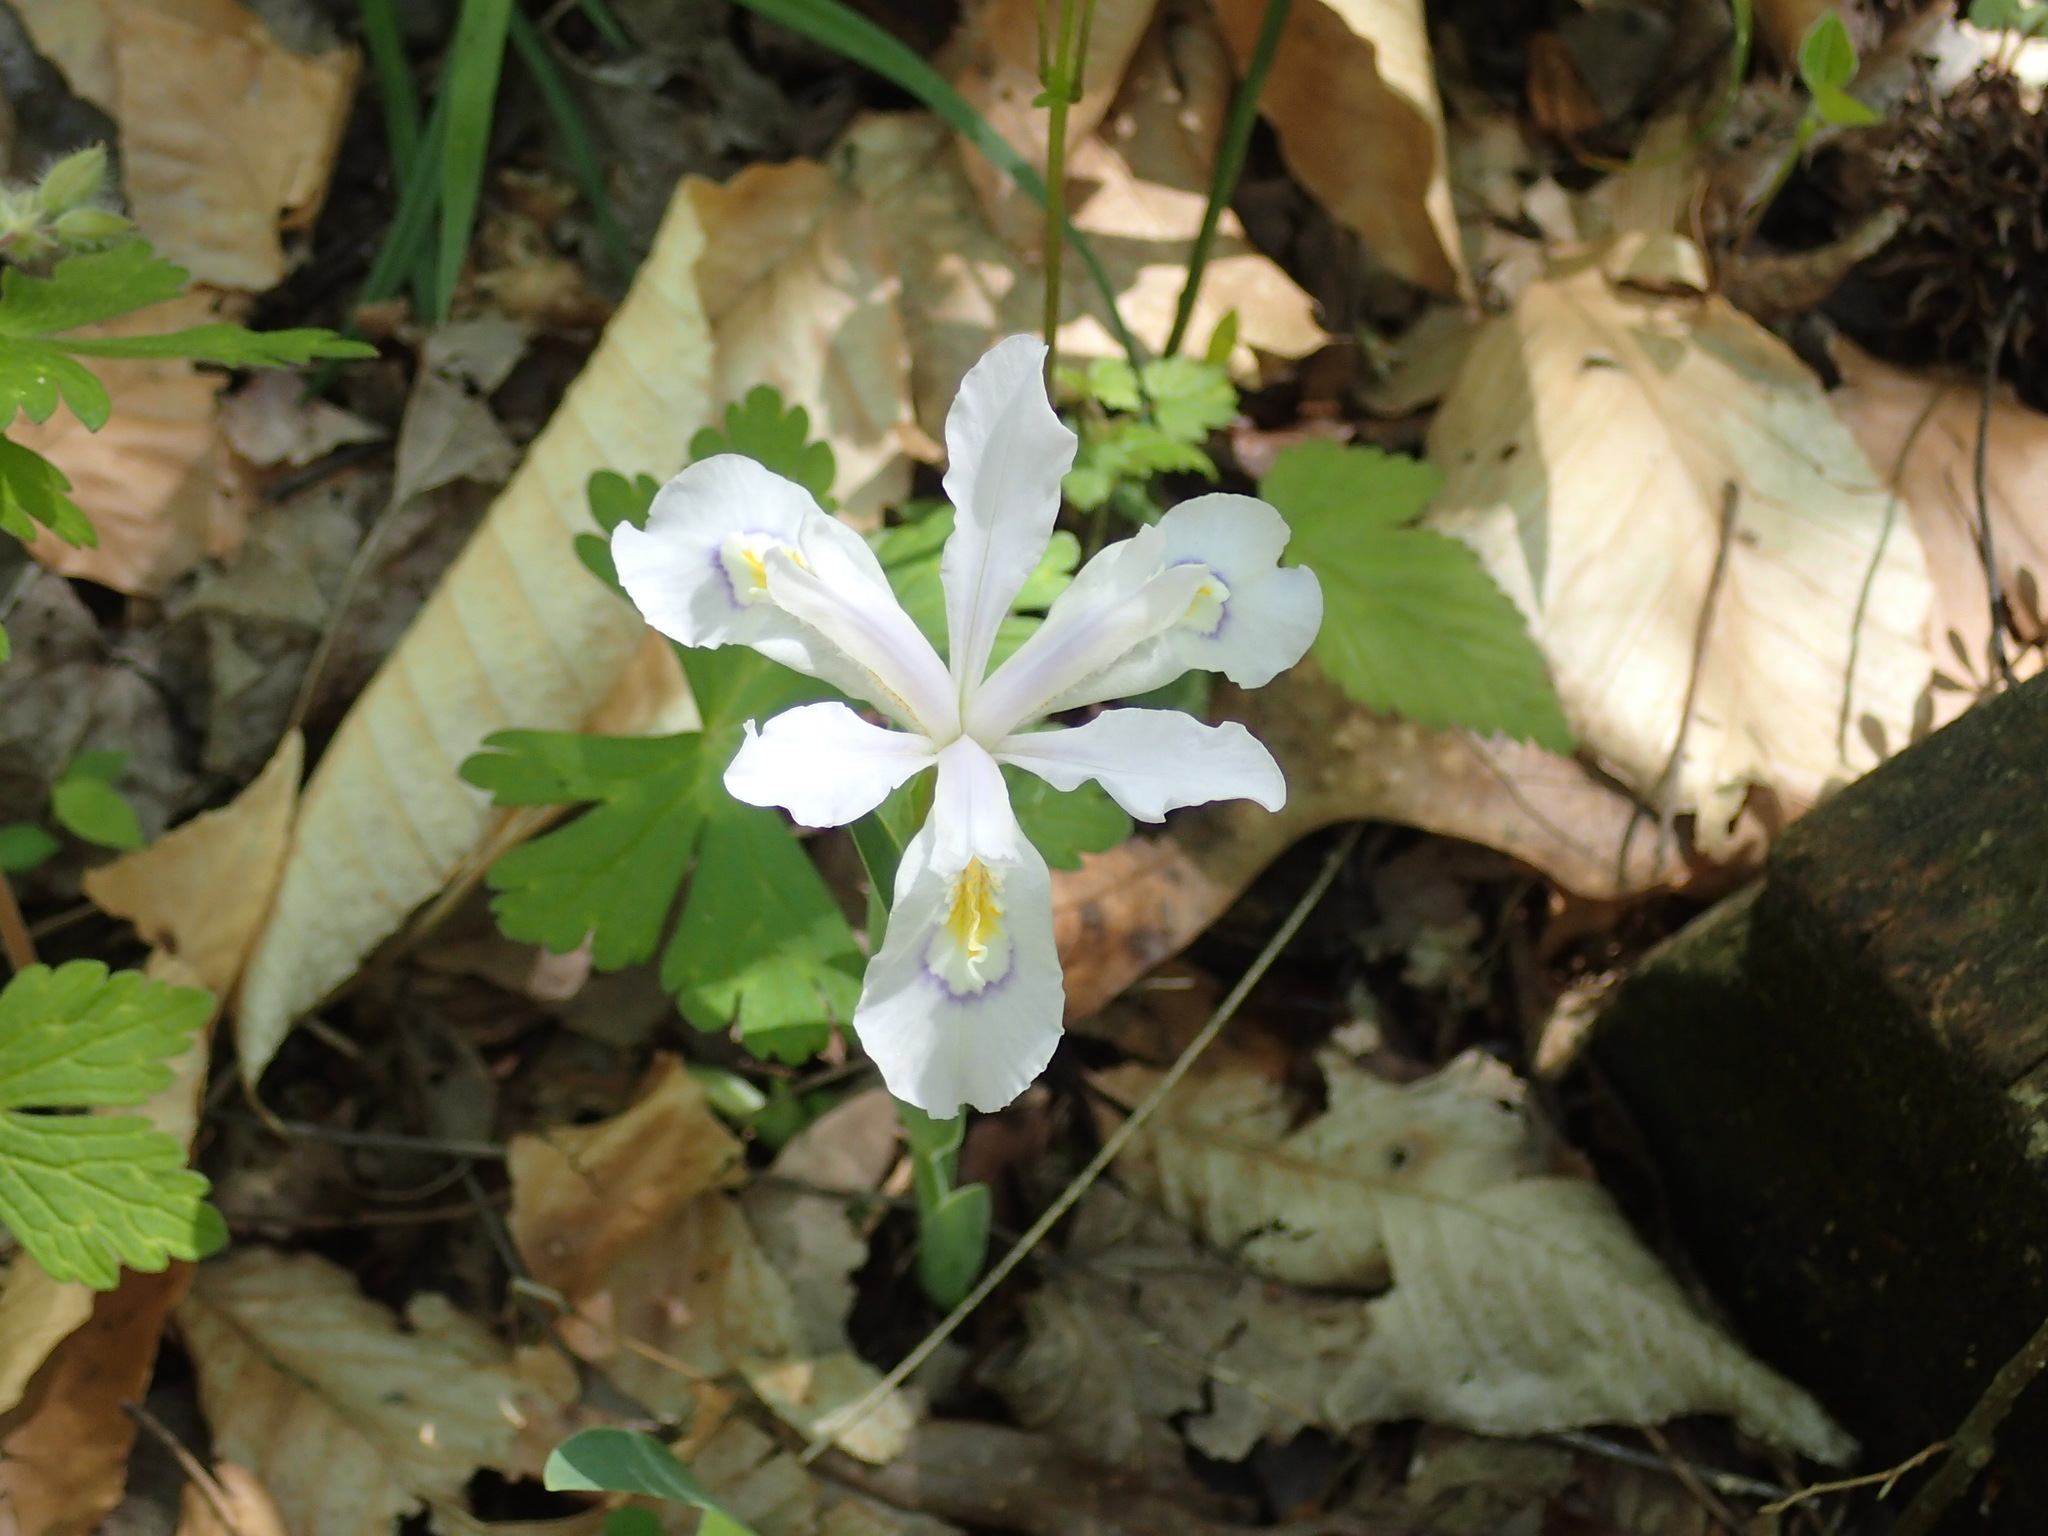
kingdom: Plantae
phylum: Tracheophyta
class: Liliopsida
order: Asparagales
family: Iridaceae
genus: Iris
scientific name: Iris cristata
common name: Crested iris
